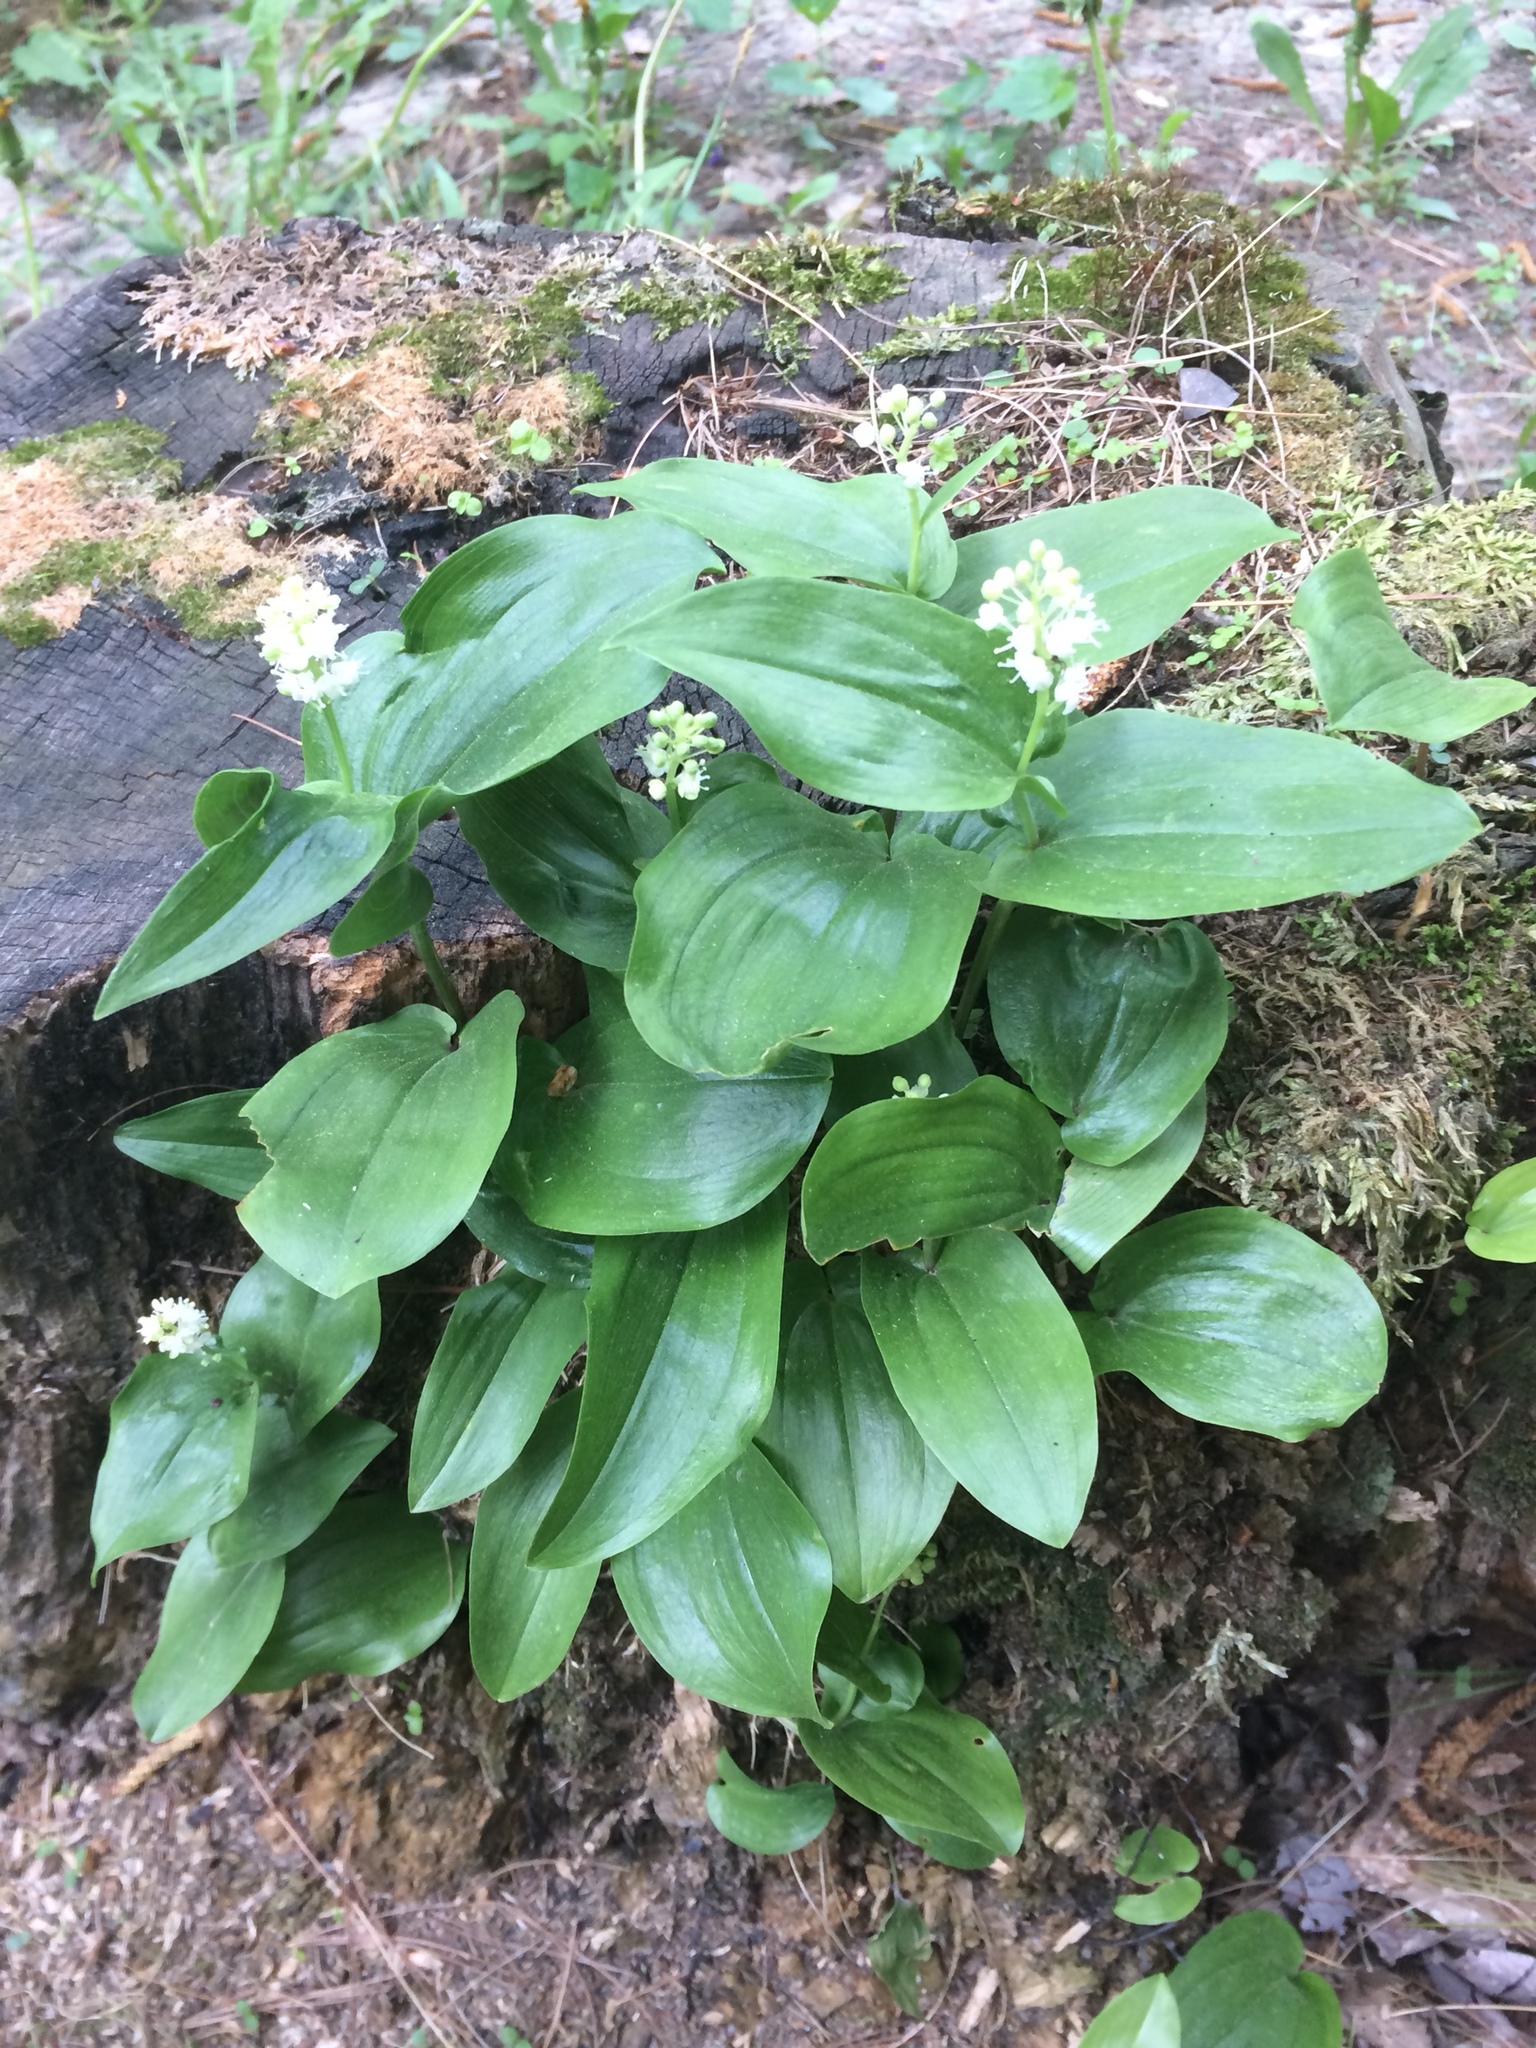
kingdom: Plantae
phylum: Tracheophyta
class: Liliopsida
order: Asparagales
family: Asparagaceae
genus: Maianthemum
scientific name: Maianthemum canadense
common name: False lily-of-the-valley
